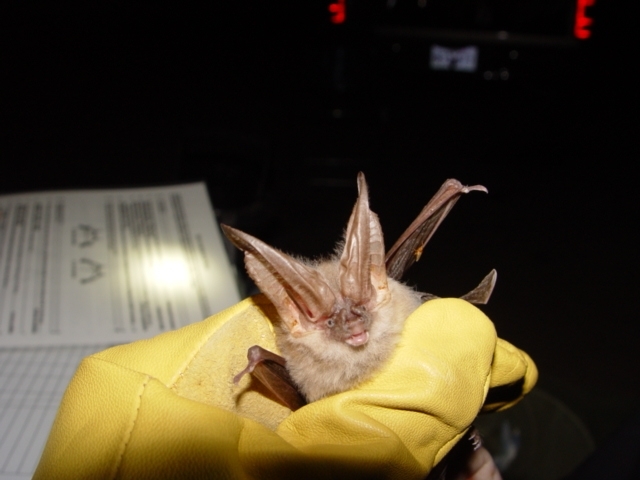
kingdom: Animalia
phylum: Chordata
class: Mammalia
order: Chiroptera
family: Vespertilionidae
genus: Corynorhinus
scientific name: Corynorhinus townsendii
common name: Townsend's big-eared bat
